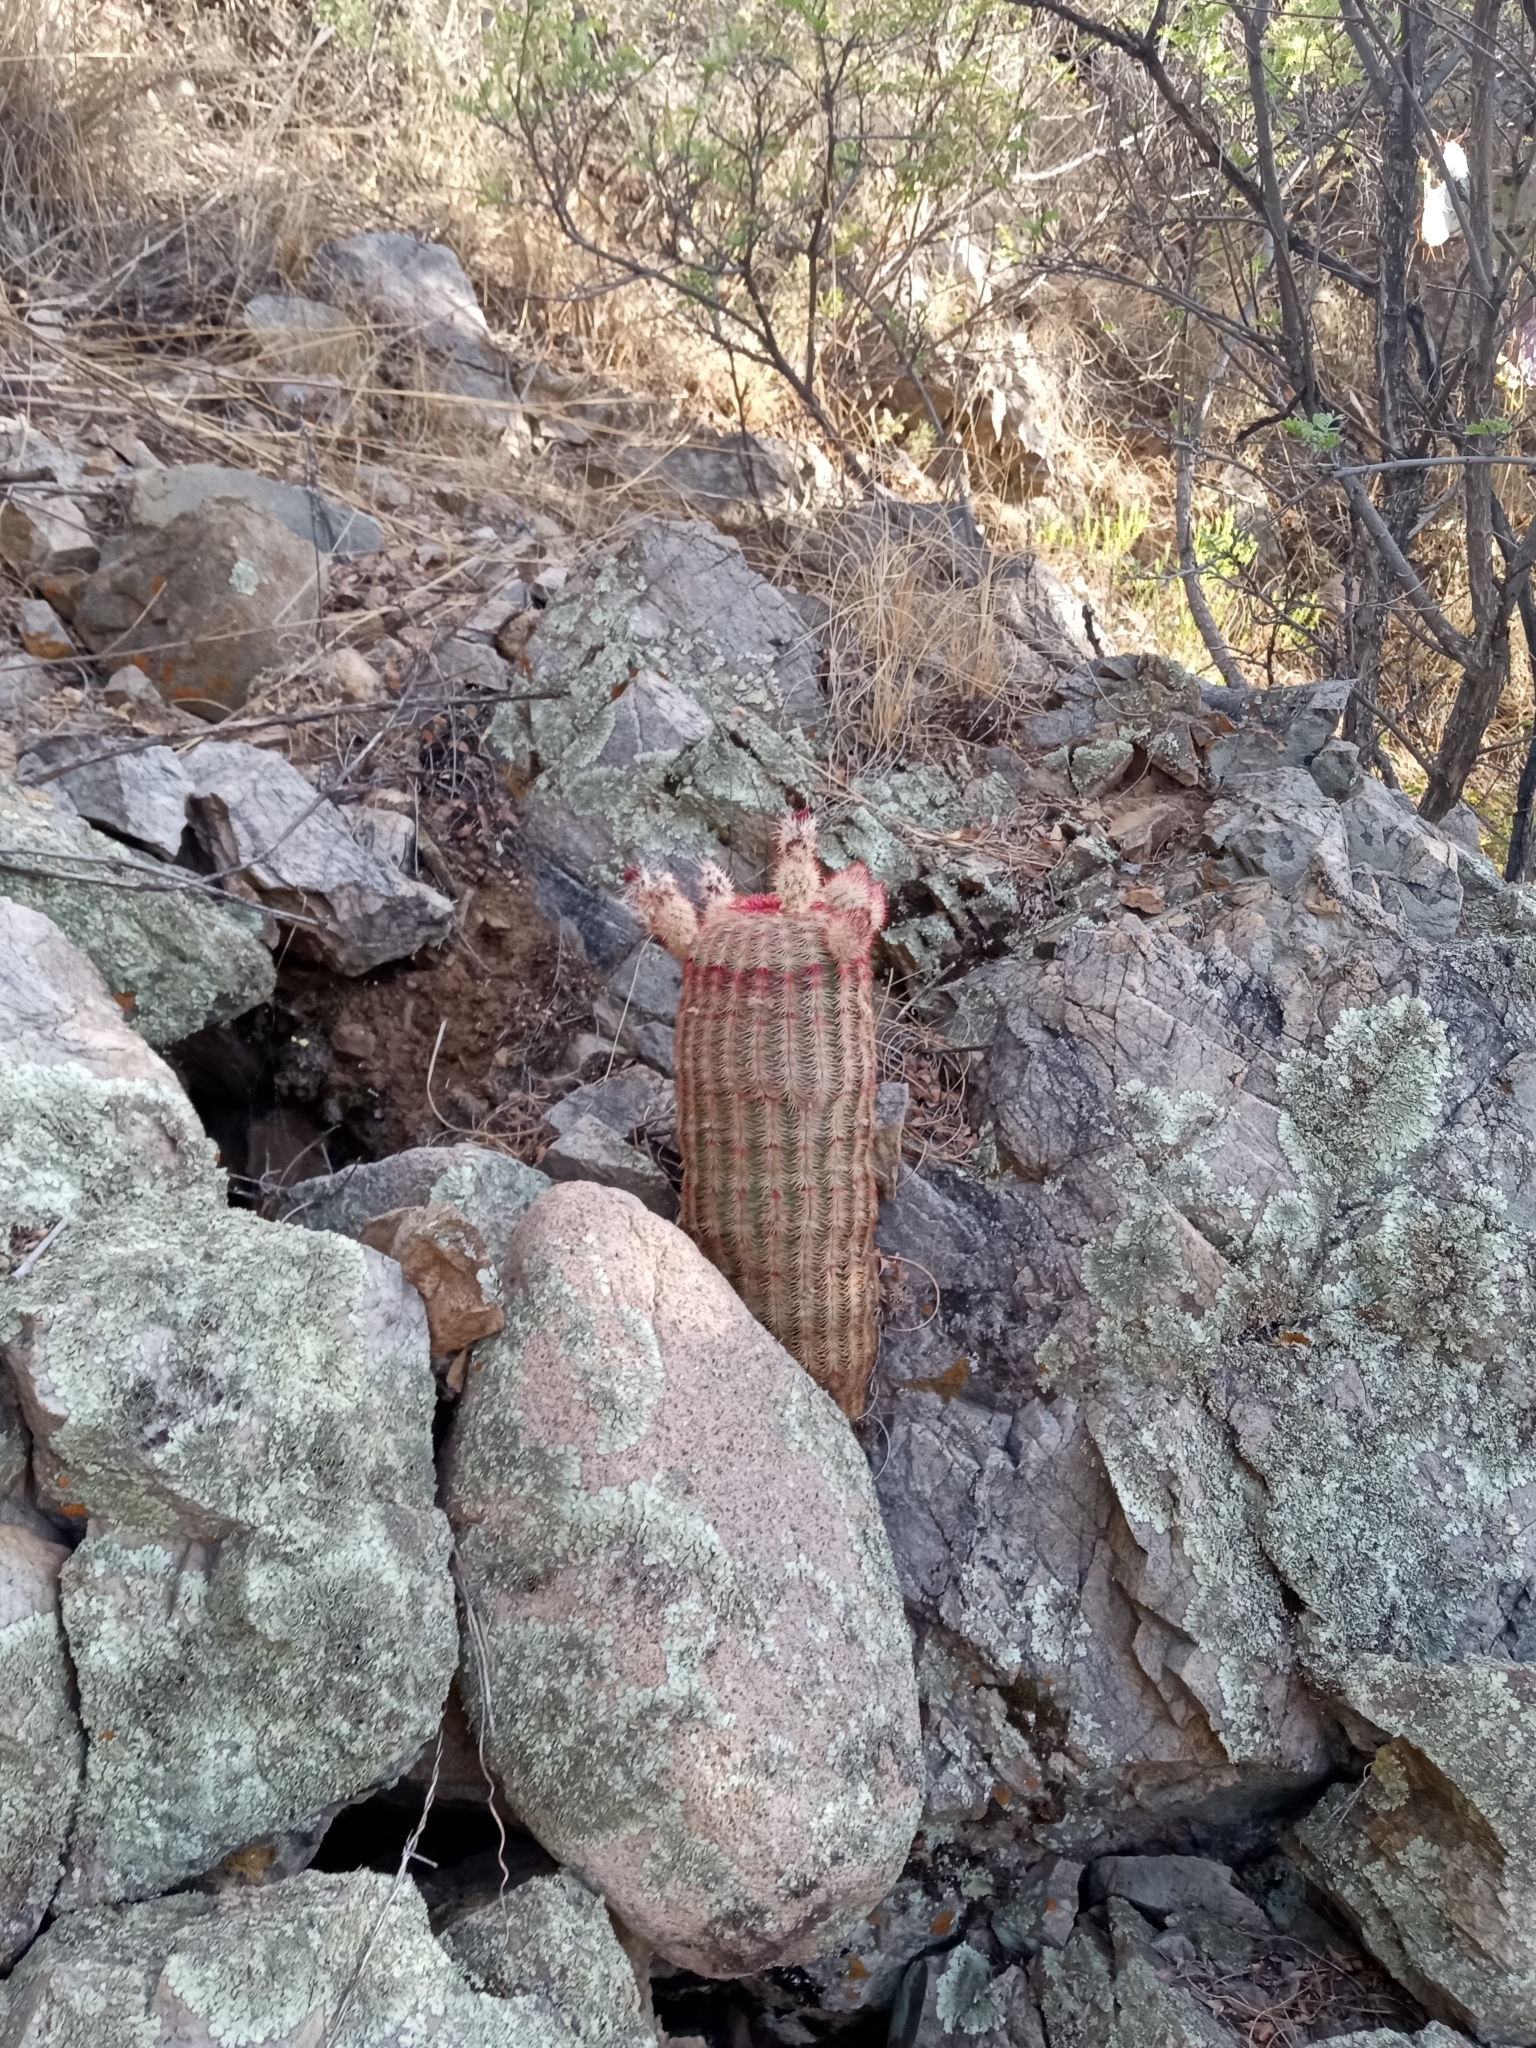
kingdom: Plantae
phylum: Tracheophyta
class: Magnoliopsida
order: Caryophyllales
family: Cactaceae
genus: Echinocereus
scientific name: Echinocereus rigidissimus
